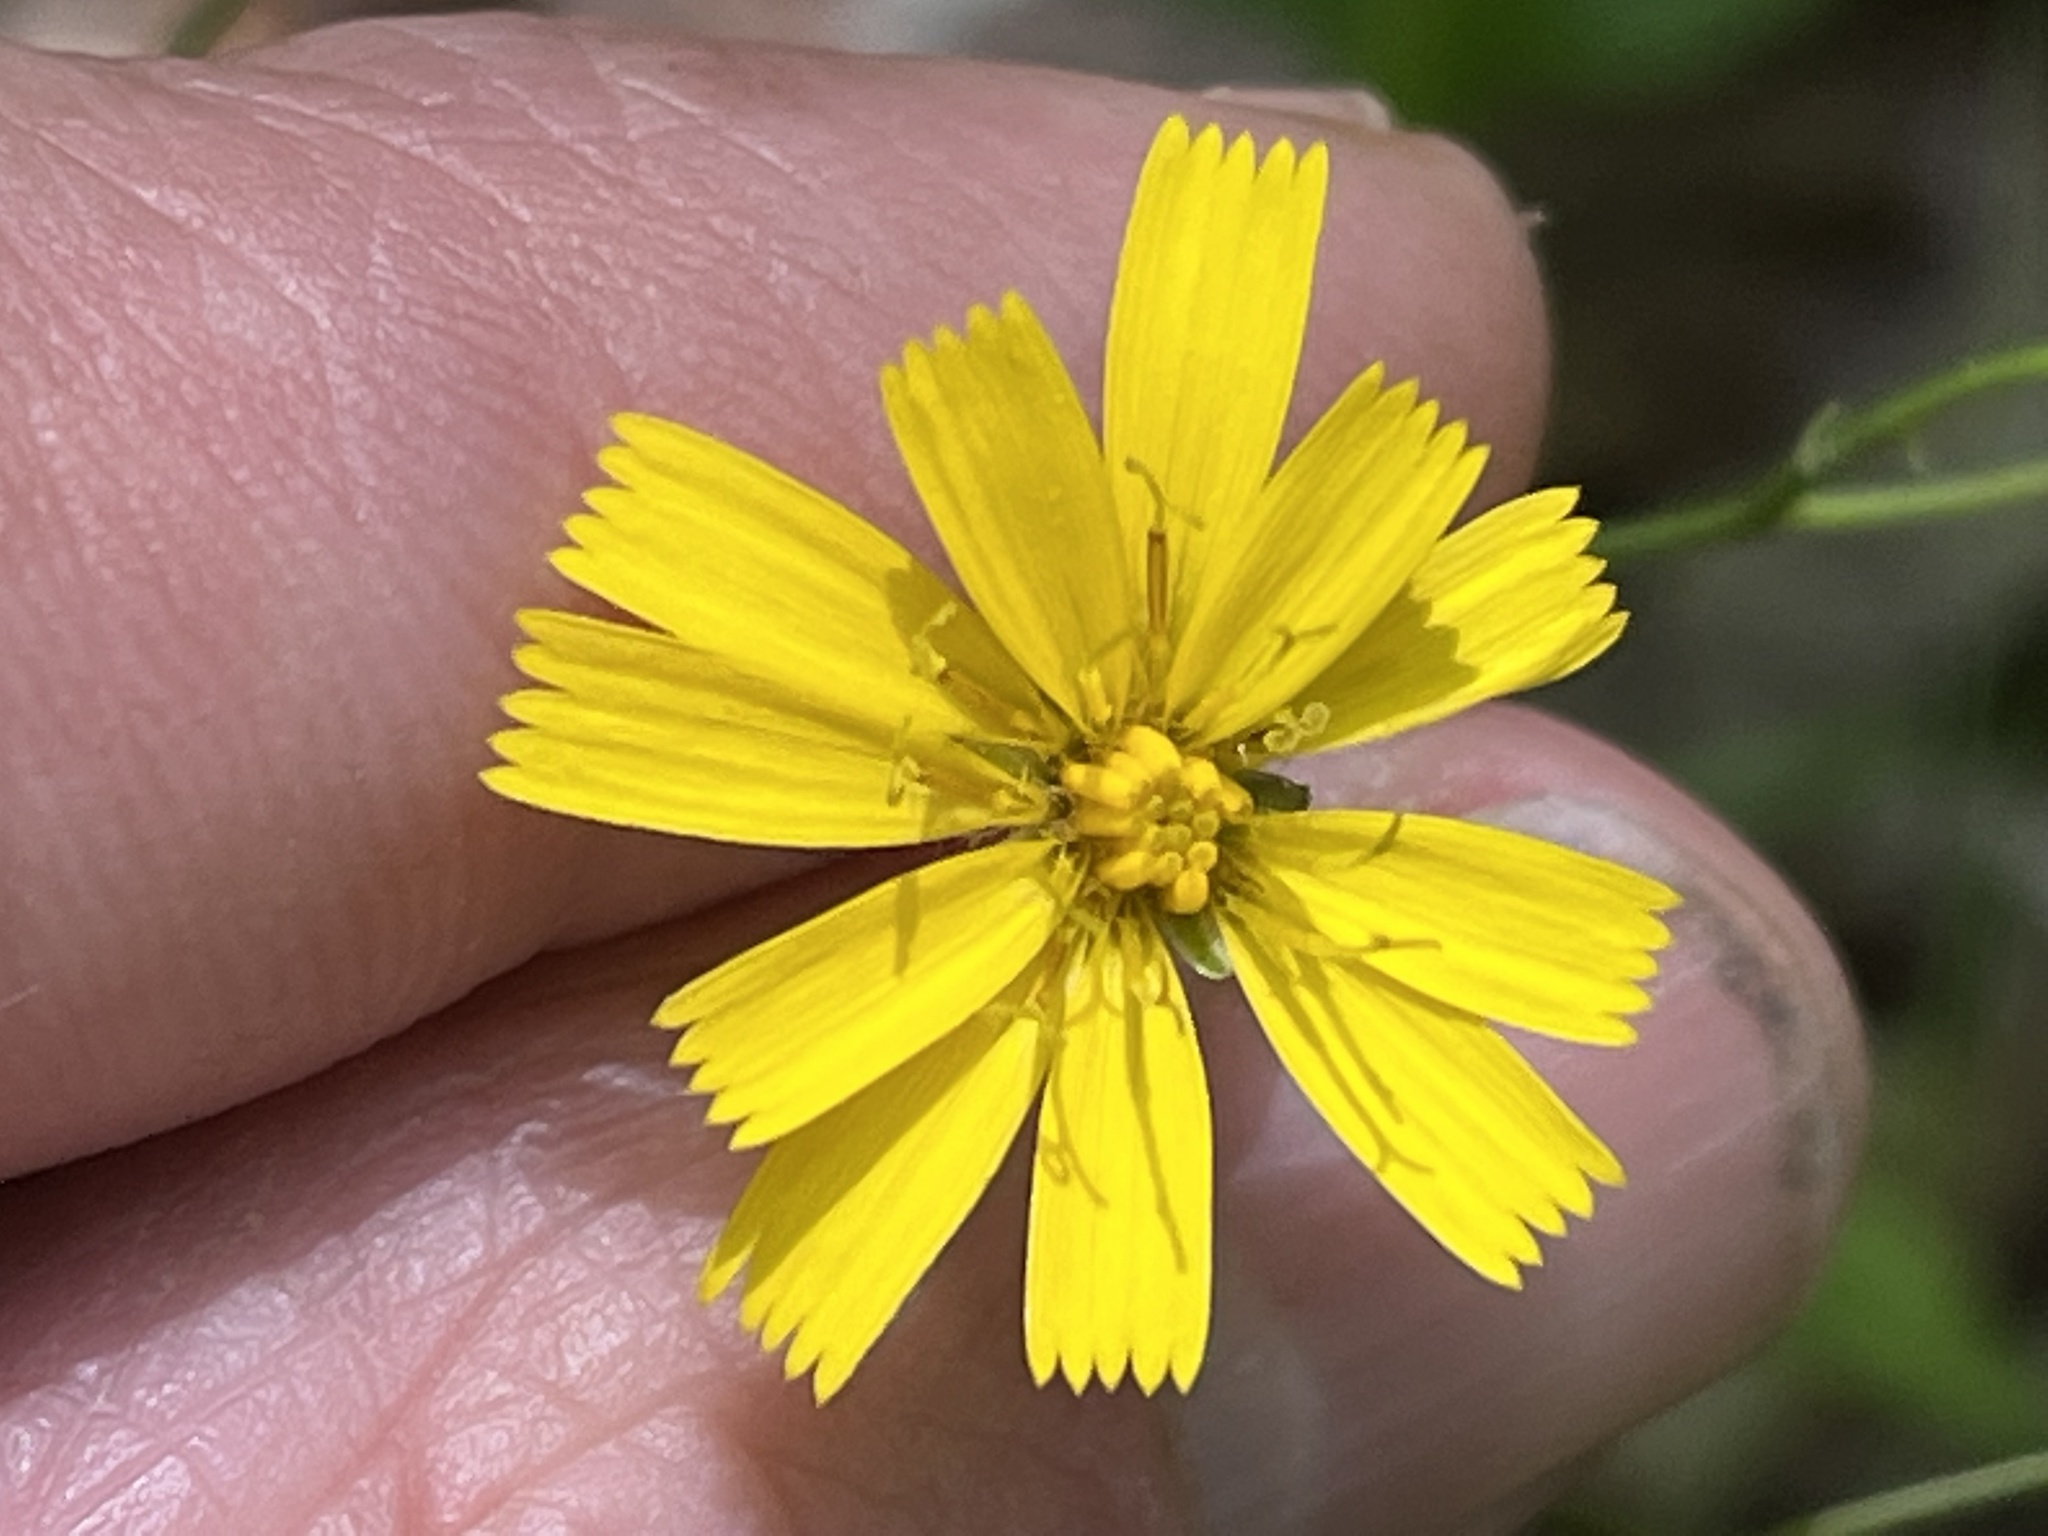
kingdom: Plantae
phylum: Tracheophyta
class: Magnoliopsida
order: Asterales
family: Asteraceae
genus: Hieracium
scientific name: Hieracium venosum
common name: Rattlesnake hawkweed
